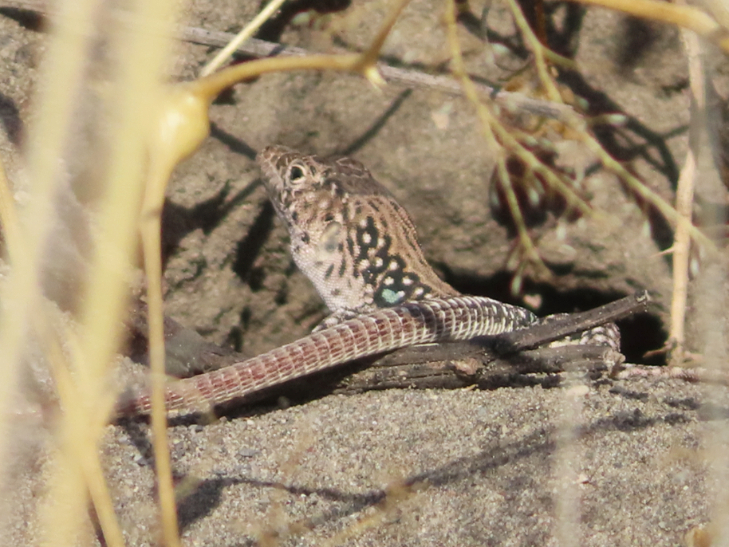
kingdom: Animalia
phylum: Chordata
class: Squamata
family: Lacertidae
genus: Eremias
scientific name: Eremias strauchi
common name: Strauch's racerunner
